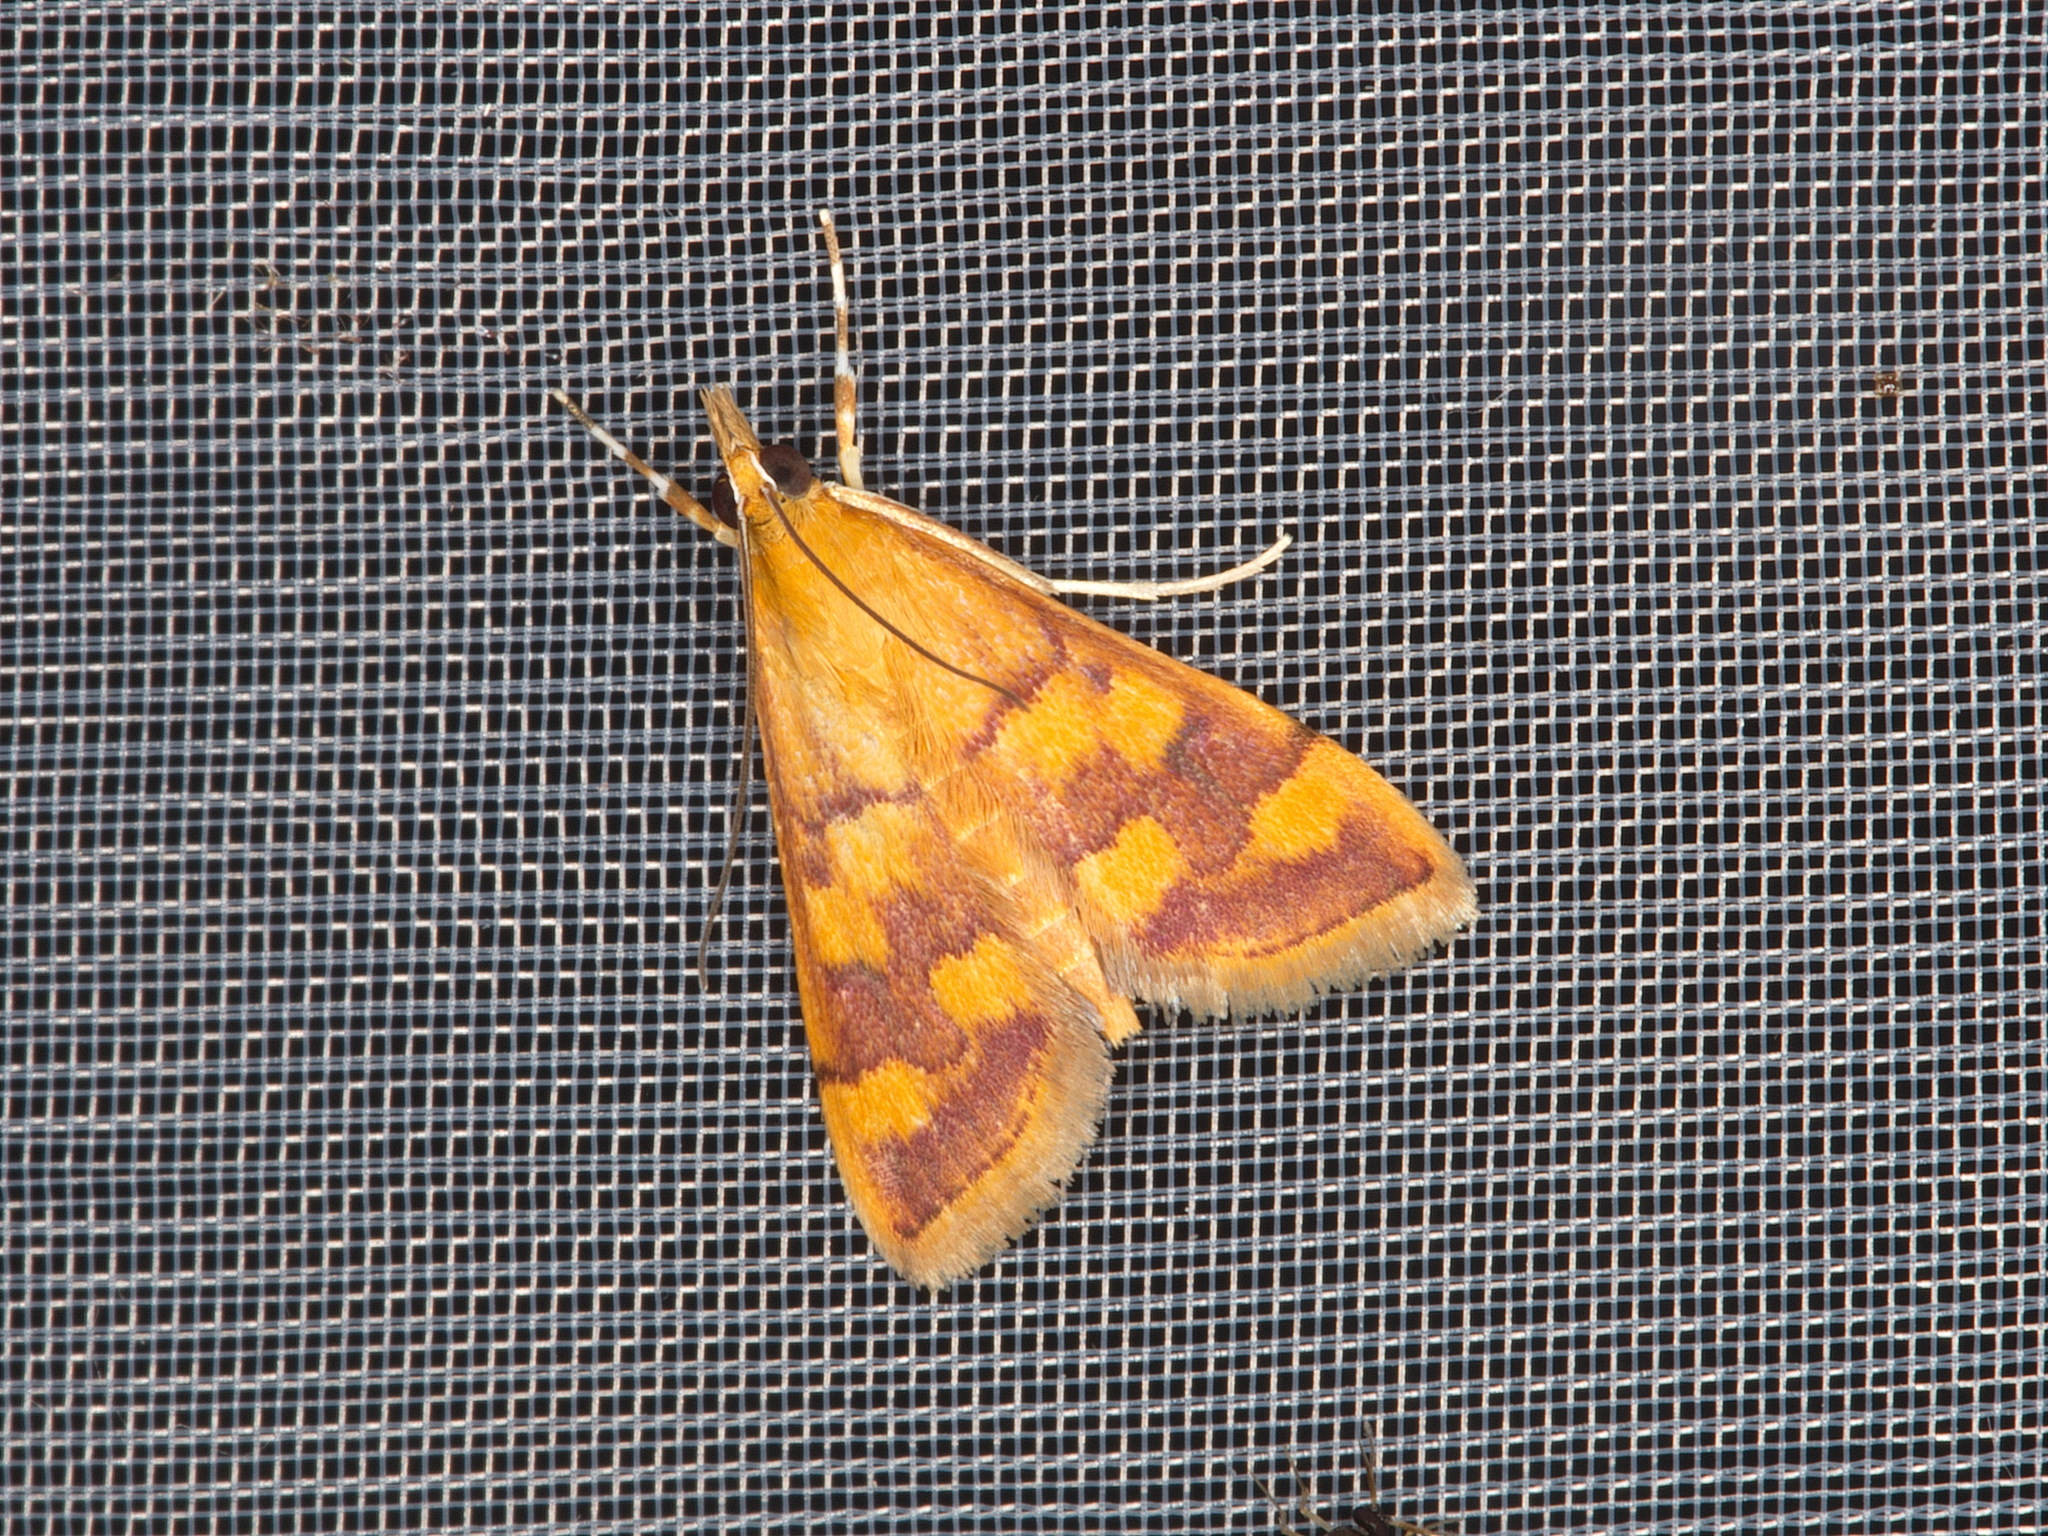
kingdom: Animalia
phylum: Arthropoda
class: Insecta
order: Lepidoptera
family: Crambidae
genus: Pyrausta
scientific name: Pyrausta phoenicealis
